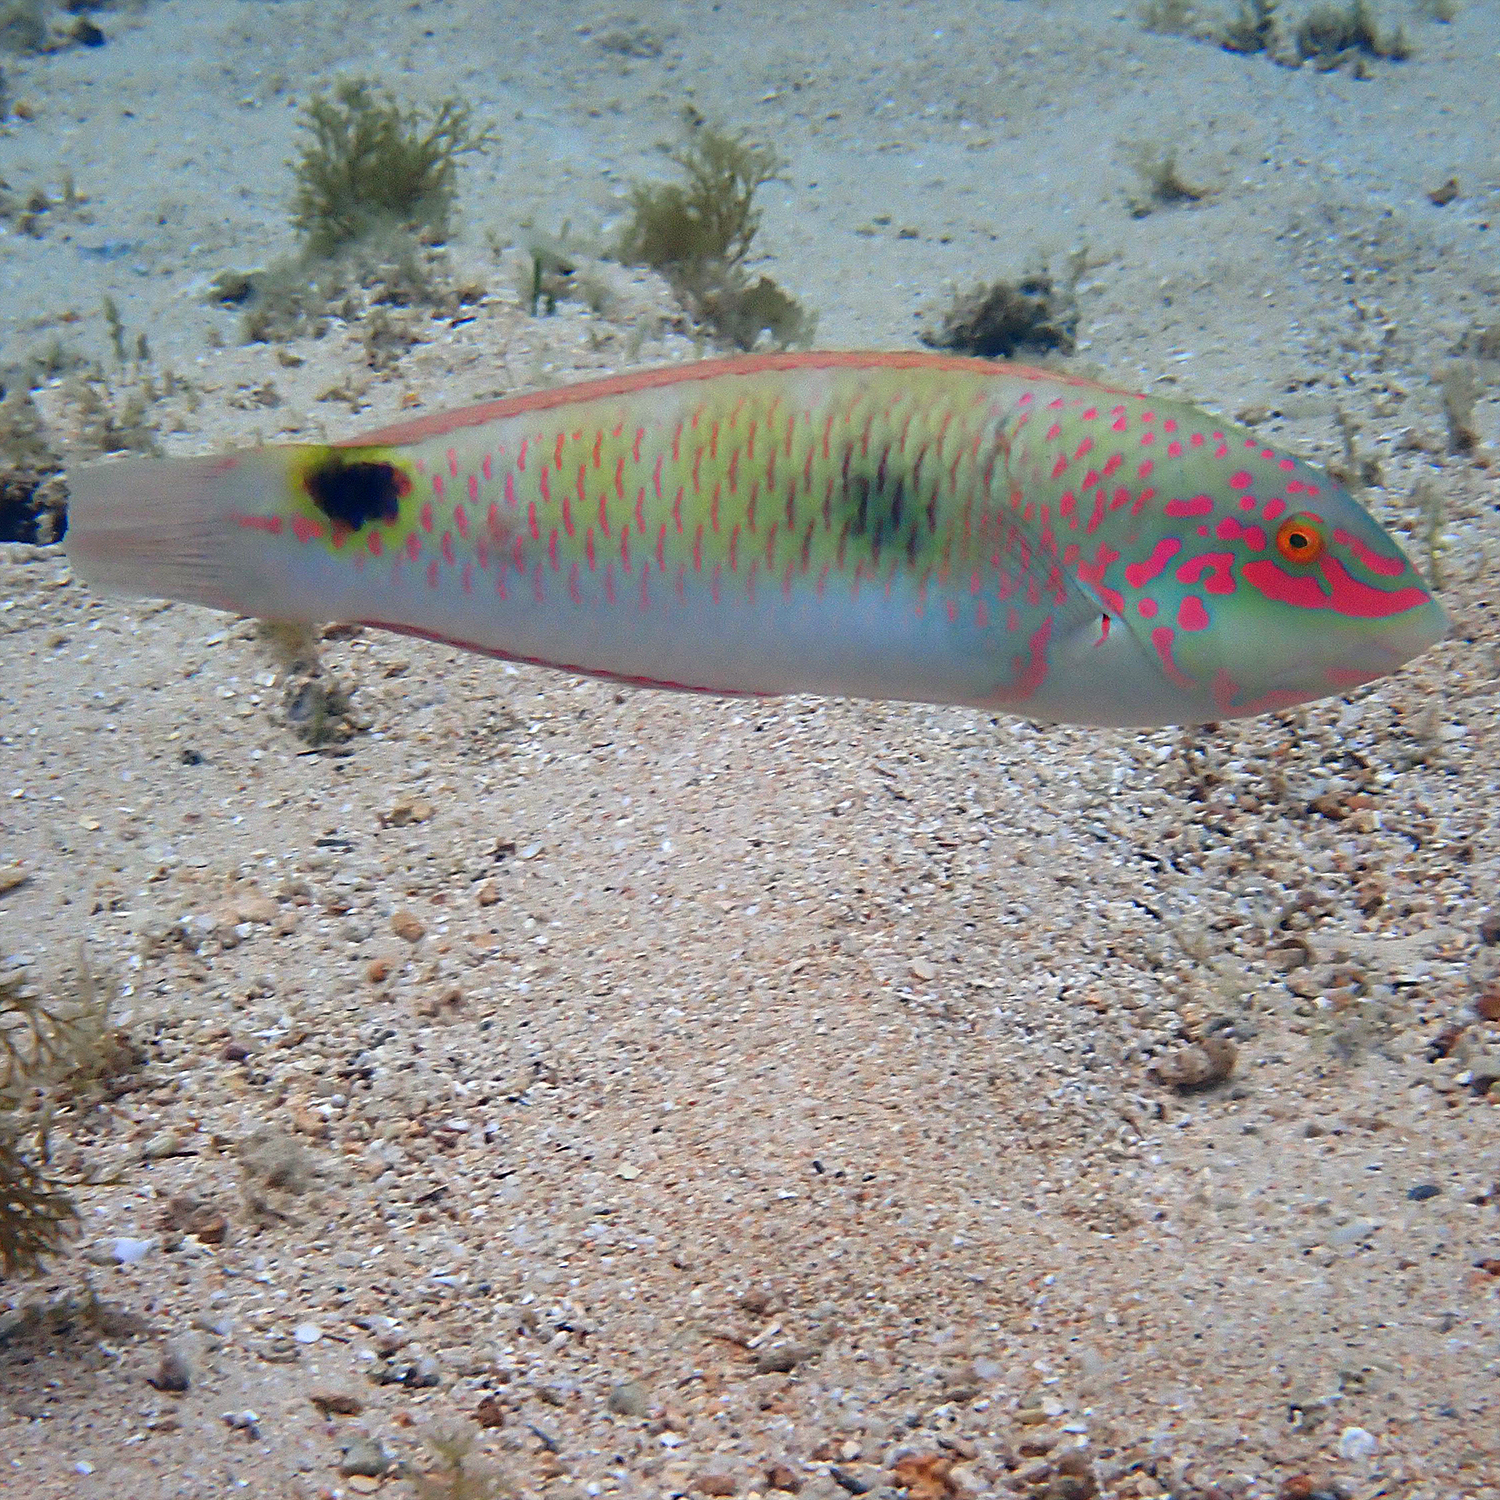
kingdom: Animalia
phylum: Chordata
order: Perciformes
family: Labridae
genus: Halichoeres
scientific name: Halichoeres trimaculatus
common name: Three-spot wrasse
